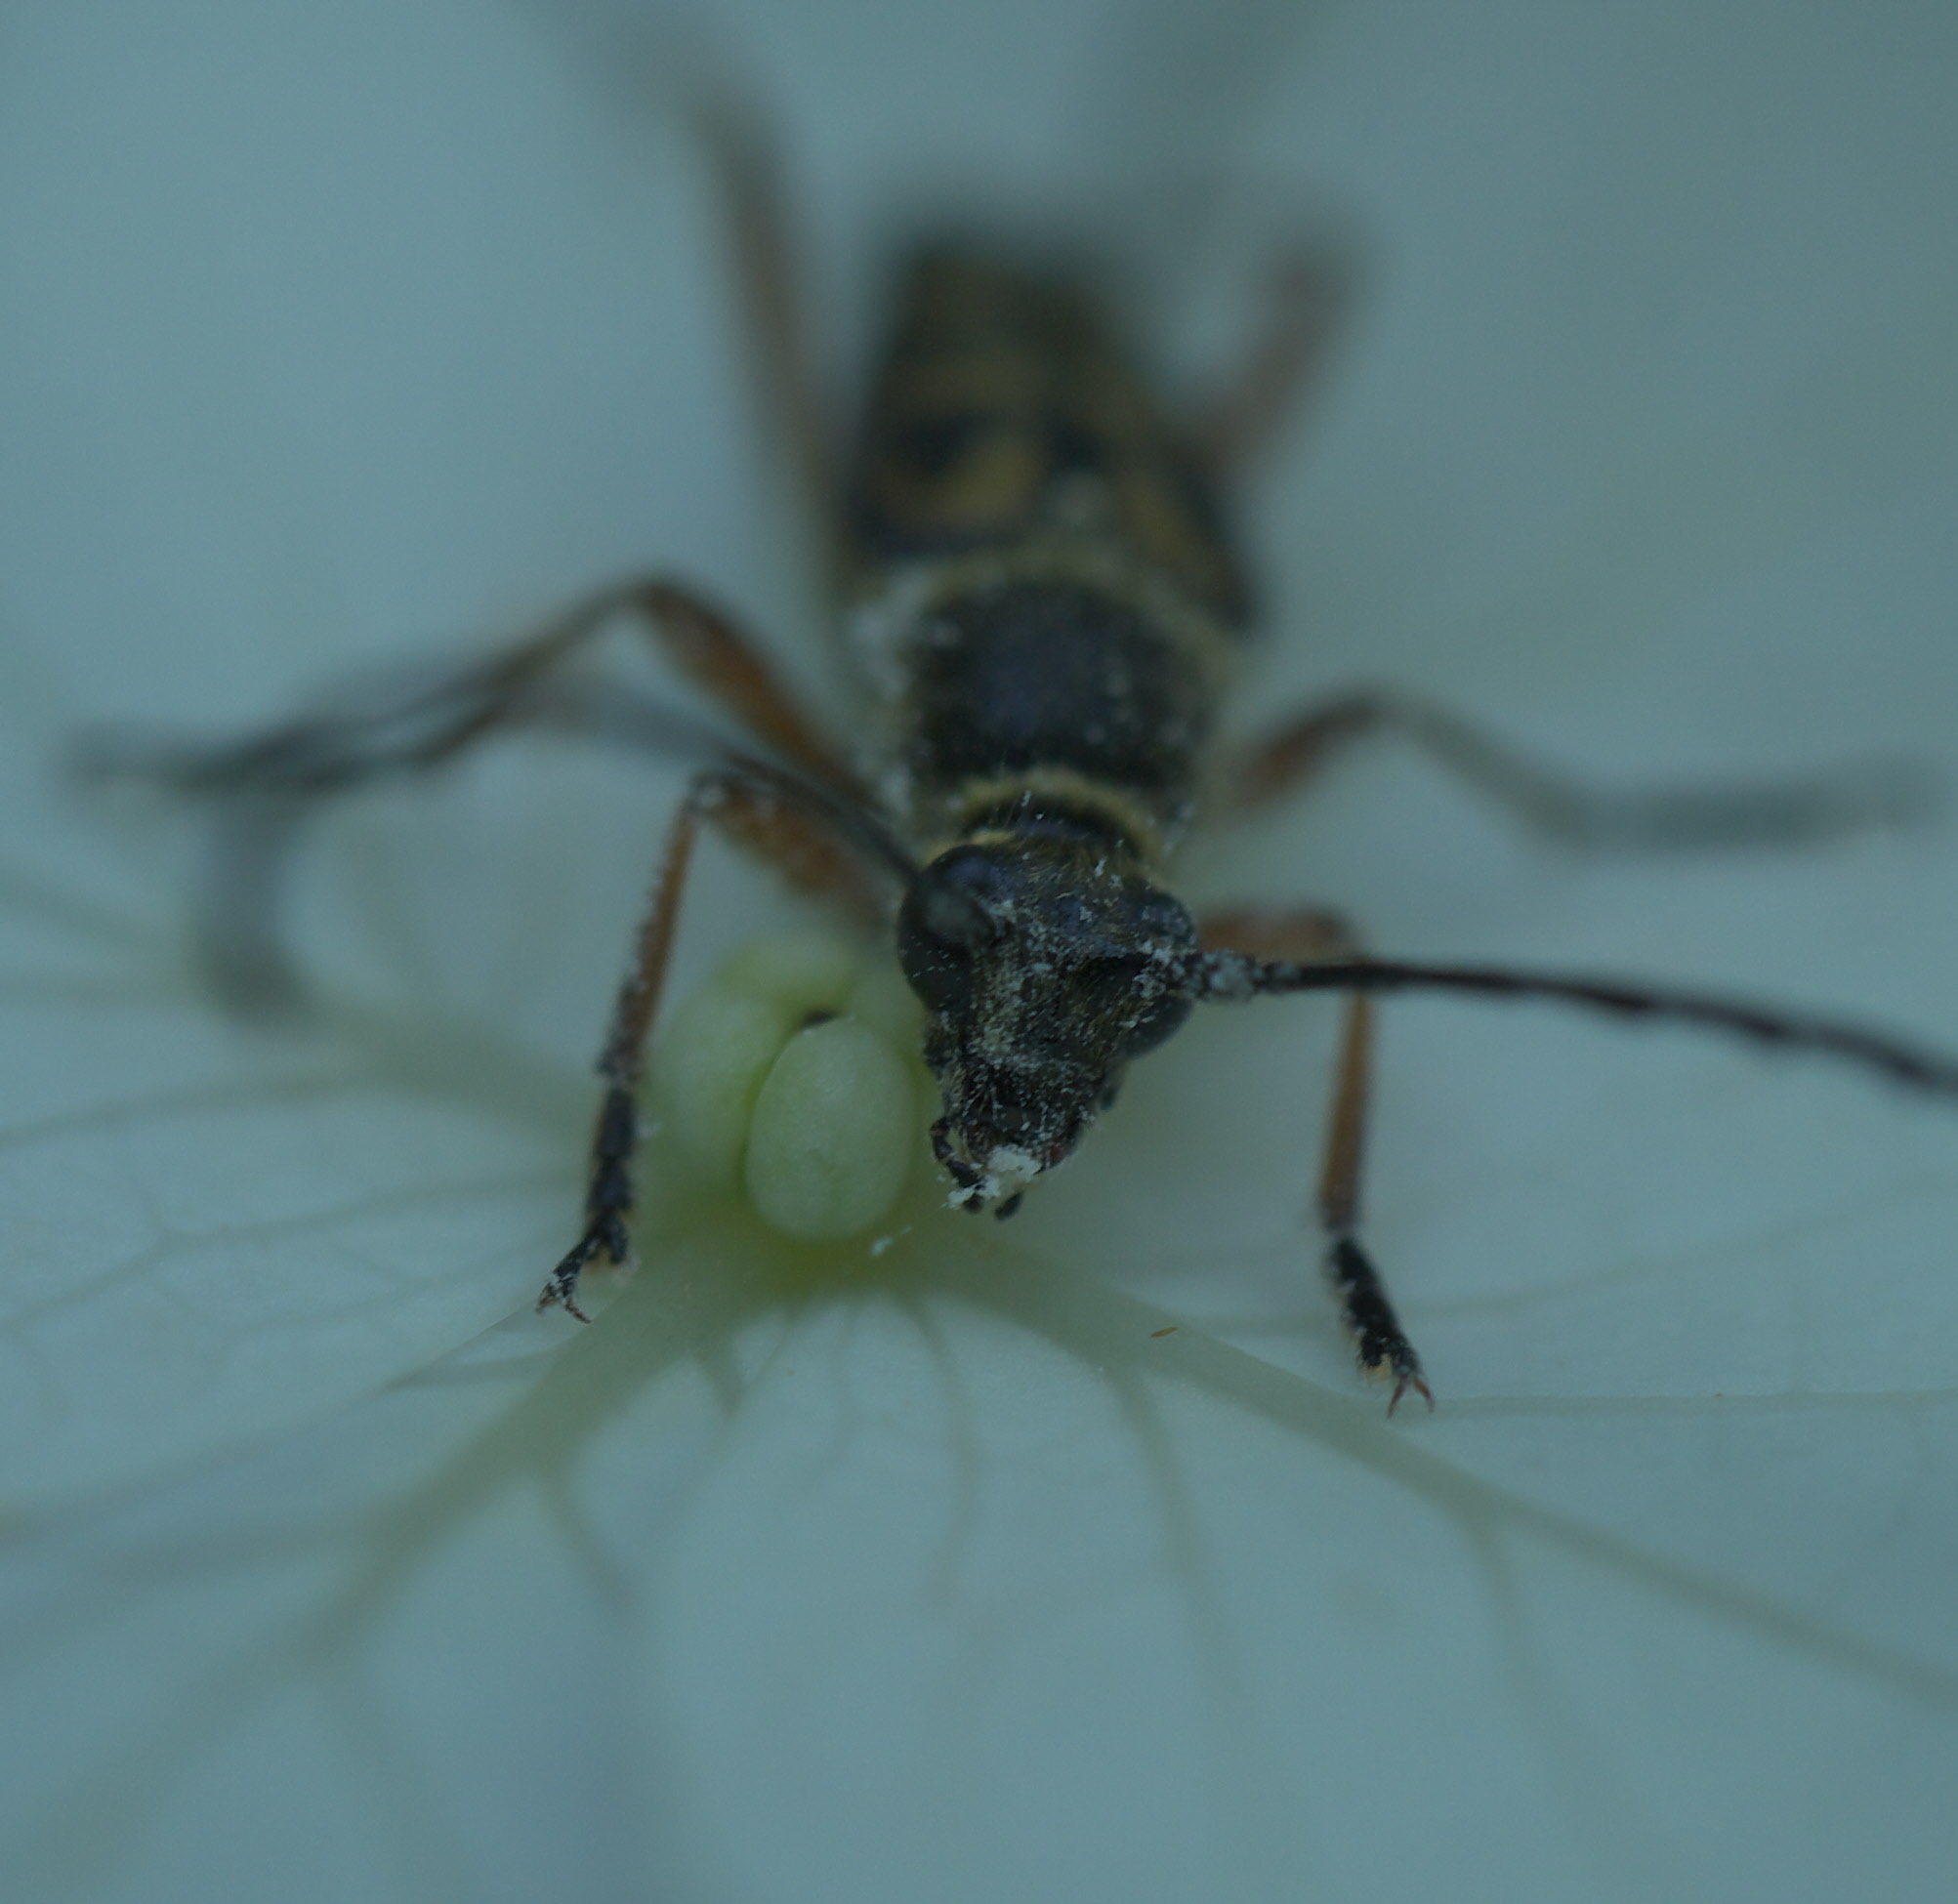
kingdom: Animalia
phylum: Arthropoda
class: Insecta
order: Coleoptera
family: Cerambycidae
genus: Typocerus
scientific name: Typocerus zebra
